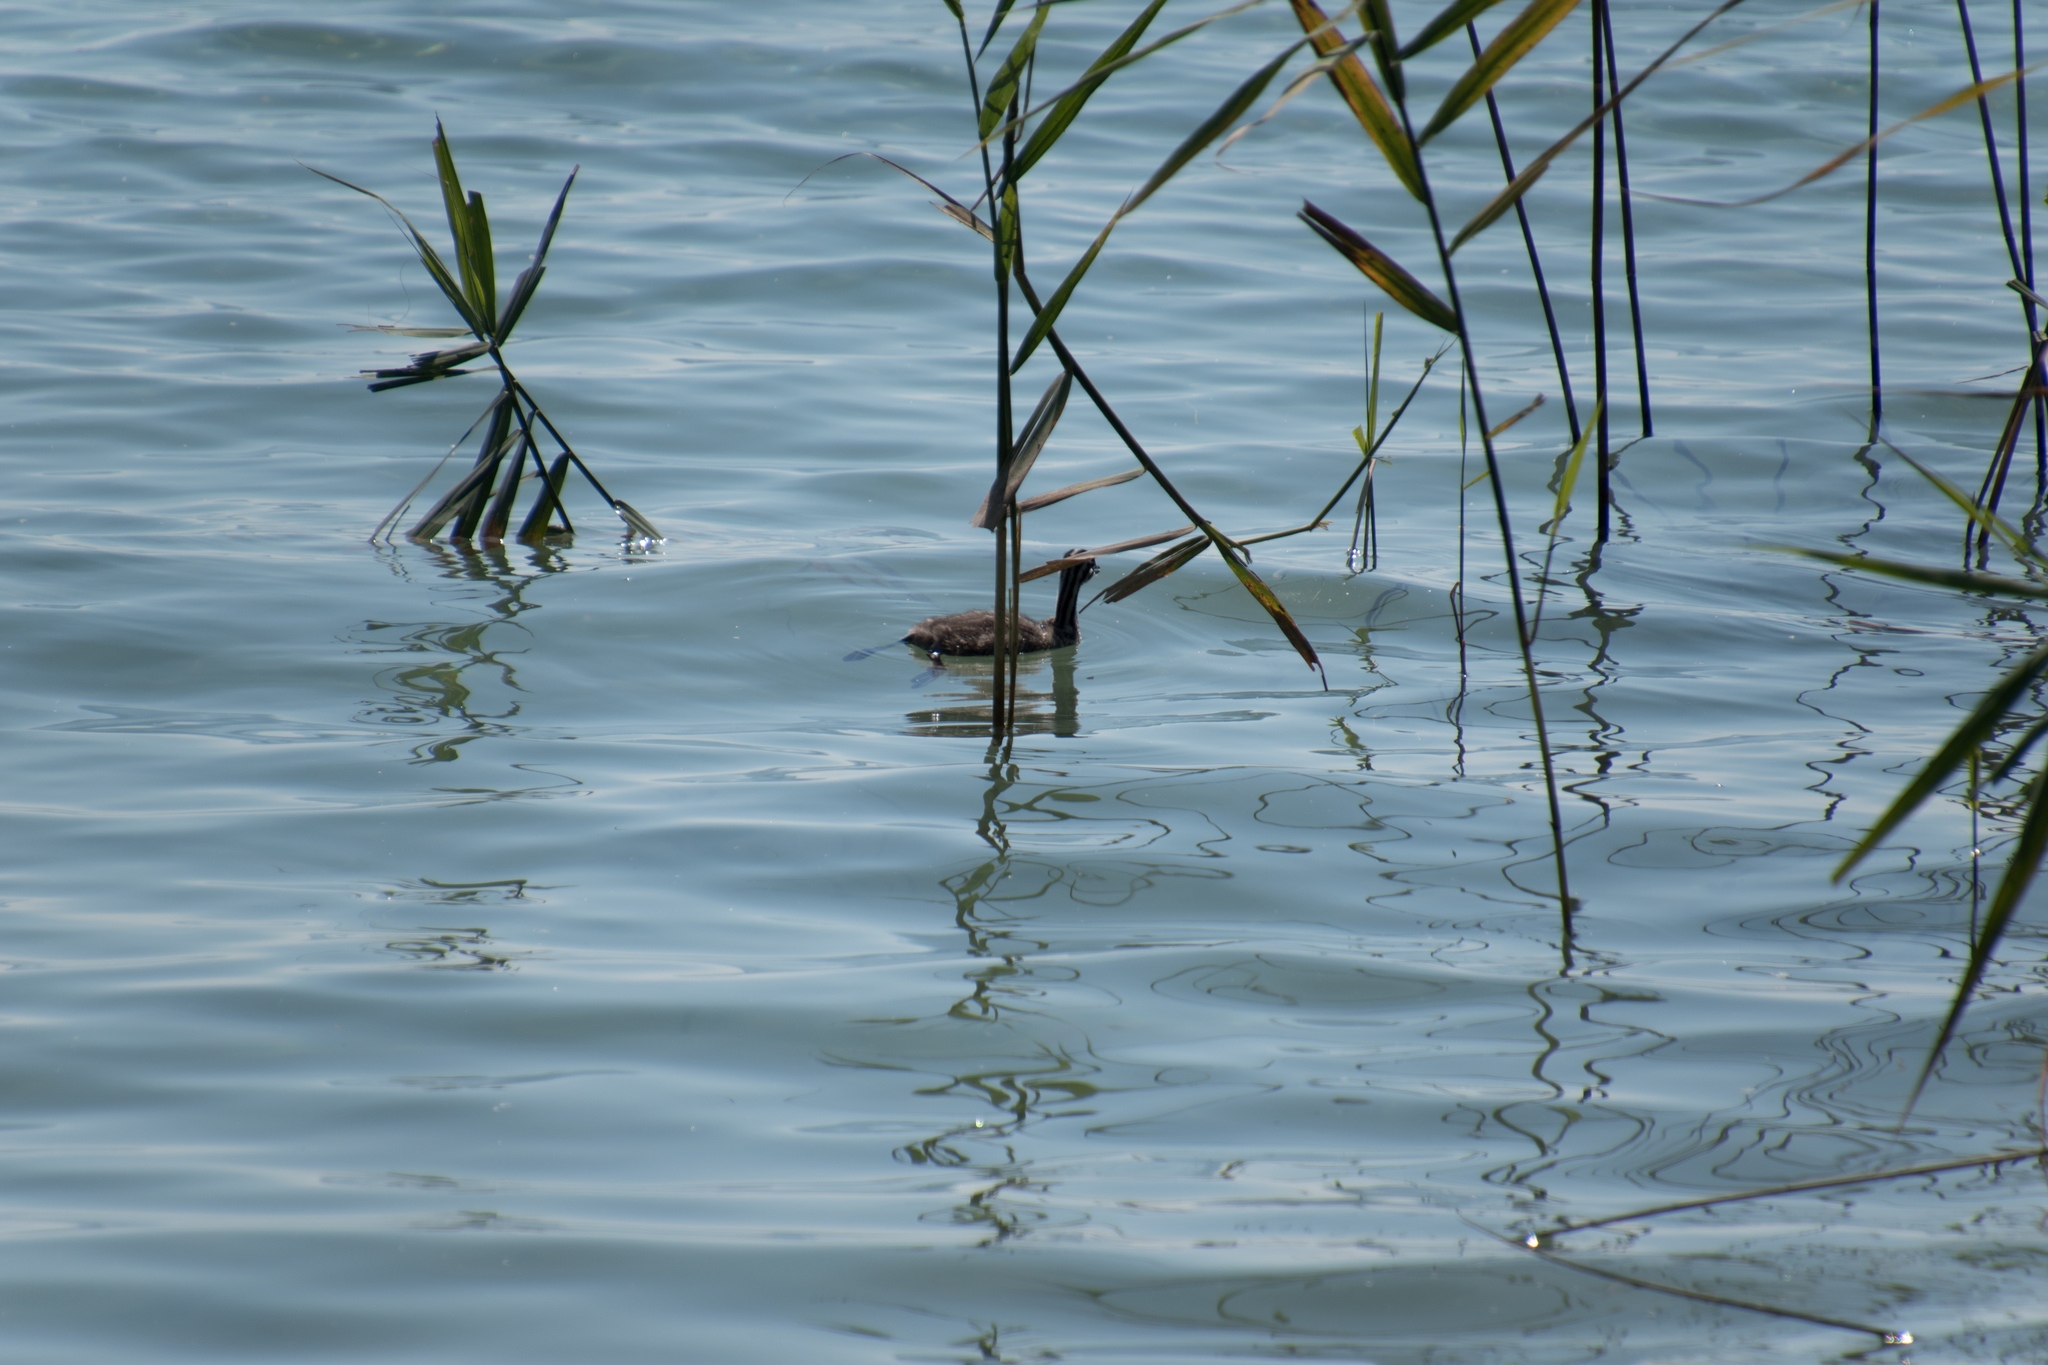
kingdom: Animalia
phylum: Chordata
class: Aves
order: Podicipediformes
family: Podicipedidae
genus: Podiceps
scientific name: Podiceps cristatus
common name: Great crested grebe
